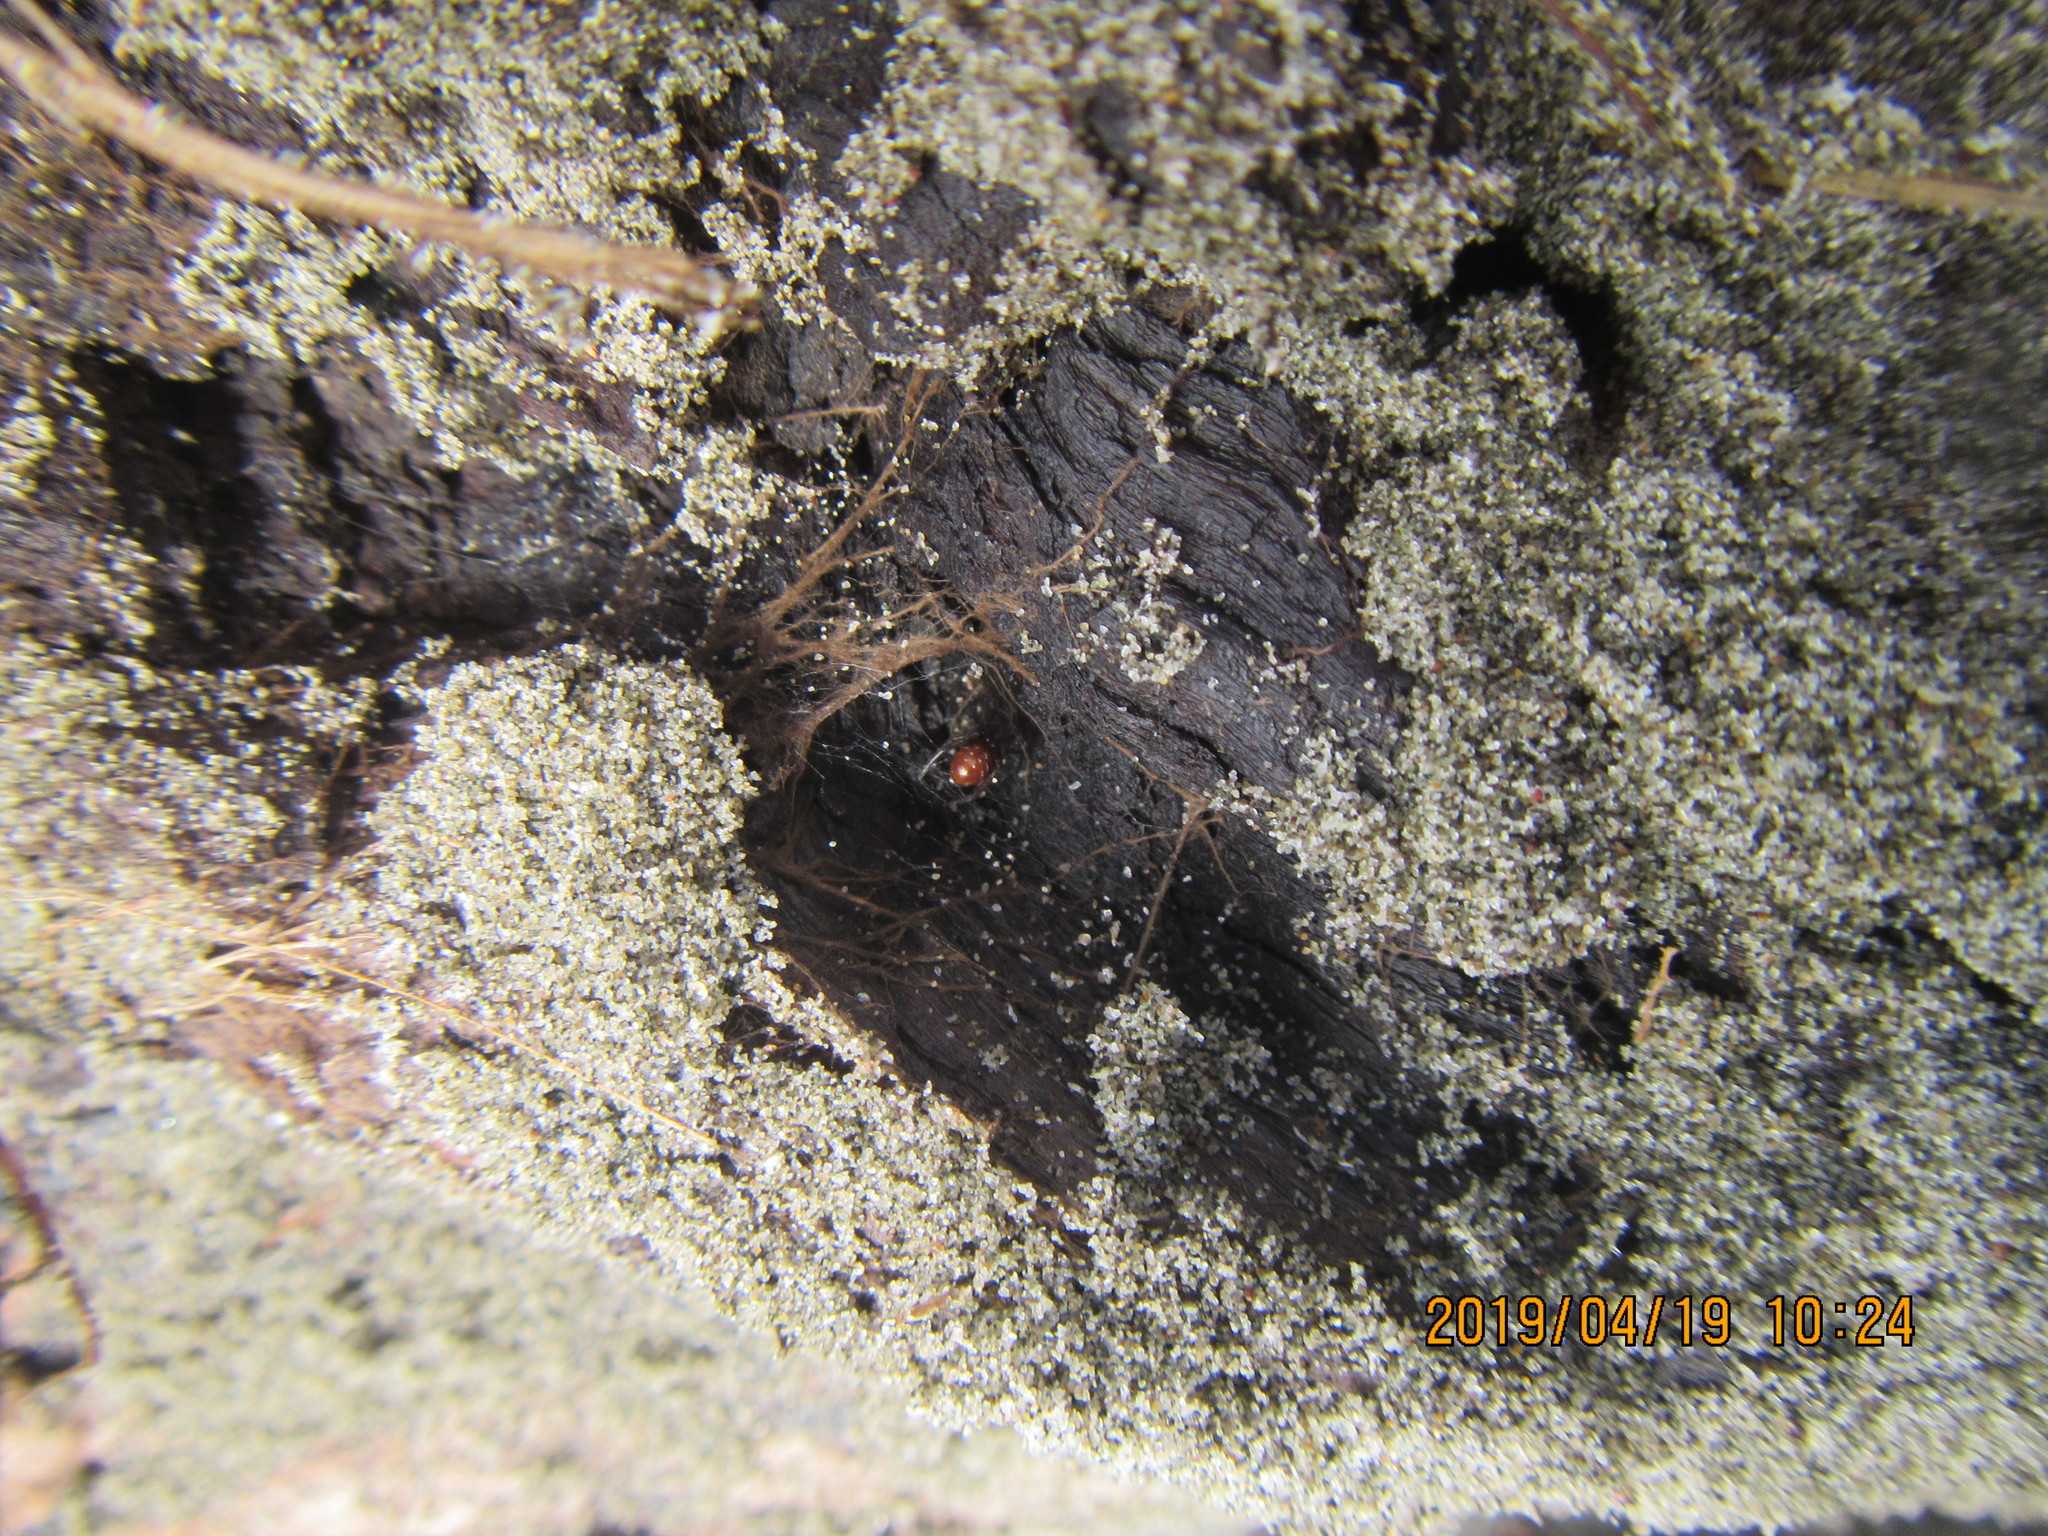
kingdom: Animalia
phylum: Arthropoda
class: Arachnida
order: Araneae
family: Theridiidae
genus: Steatoda
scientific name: Steatoda capensis
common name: Cobweb weaver
